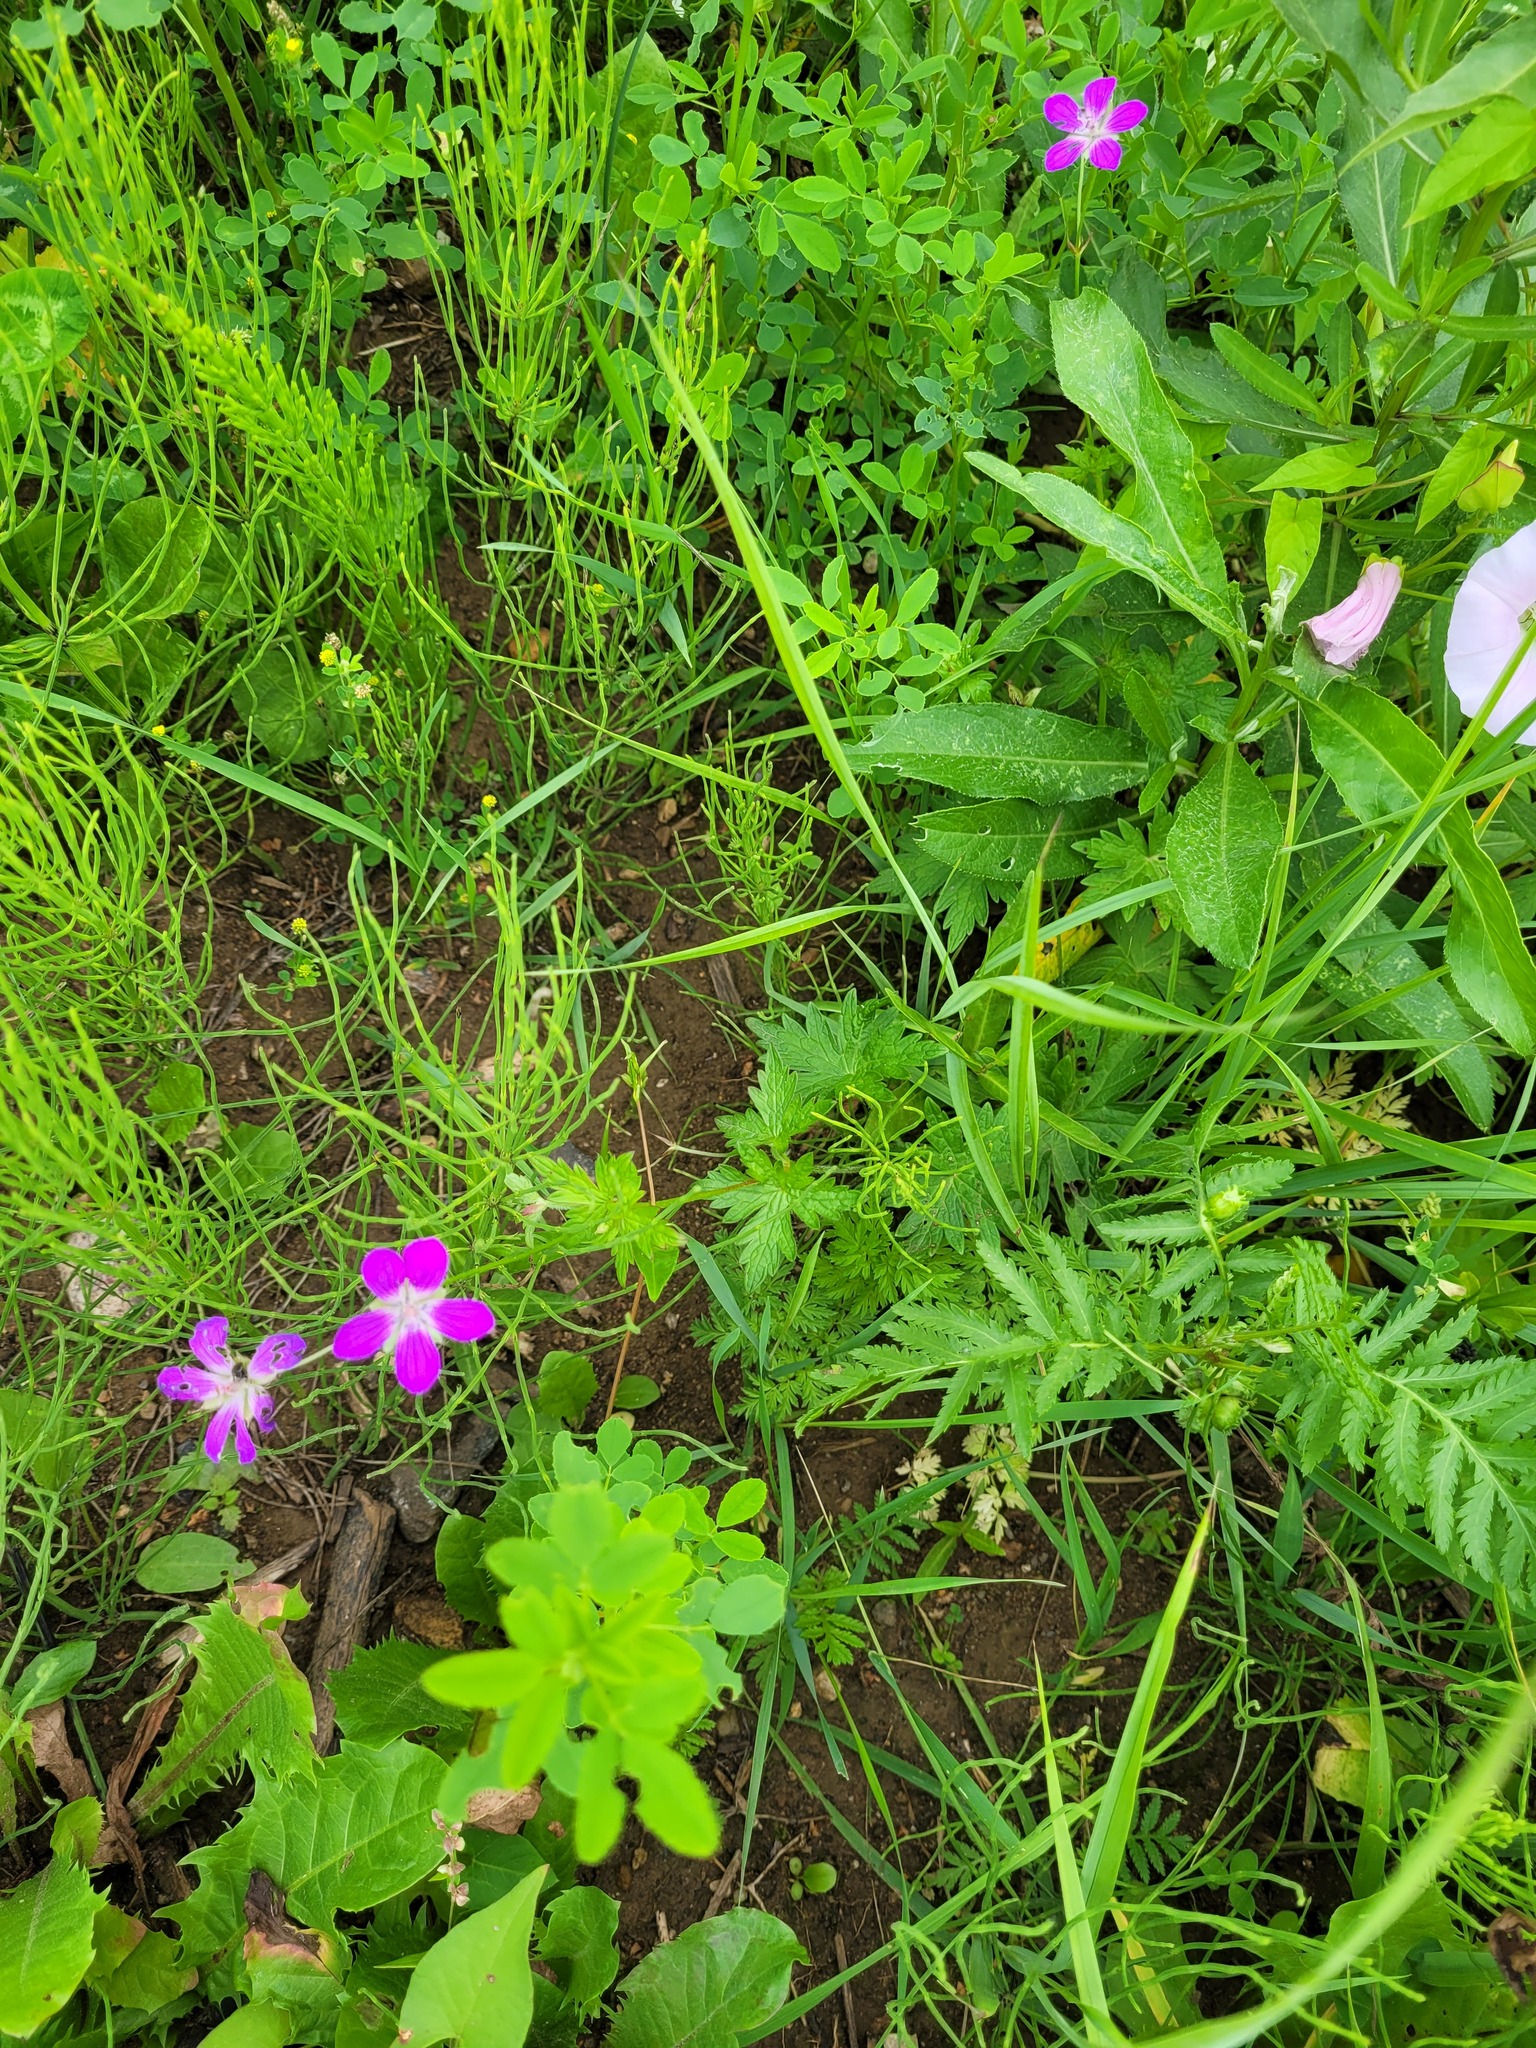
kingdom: Plantae
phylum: Tracheophyta
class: Magnoliopsida
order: Geraniales
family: Geraniaceae
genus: Geranium
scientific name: Geranium palustre
